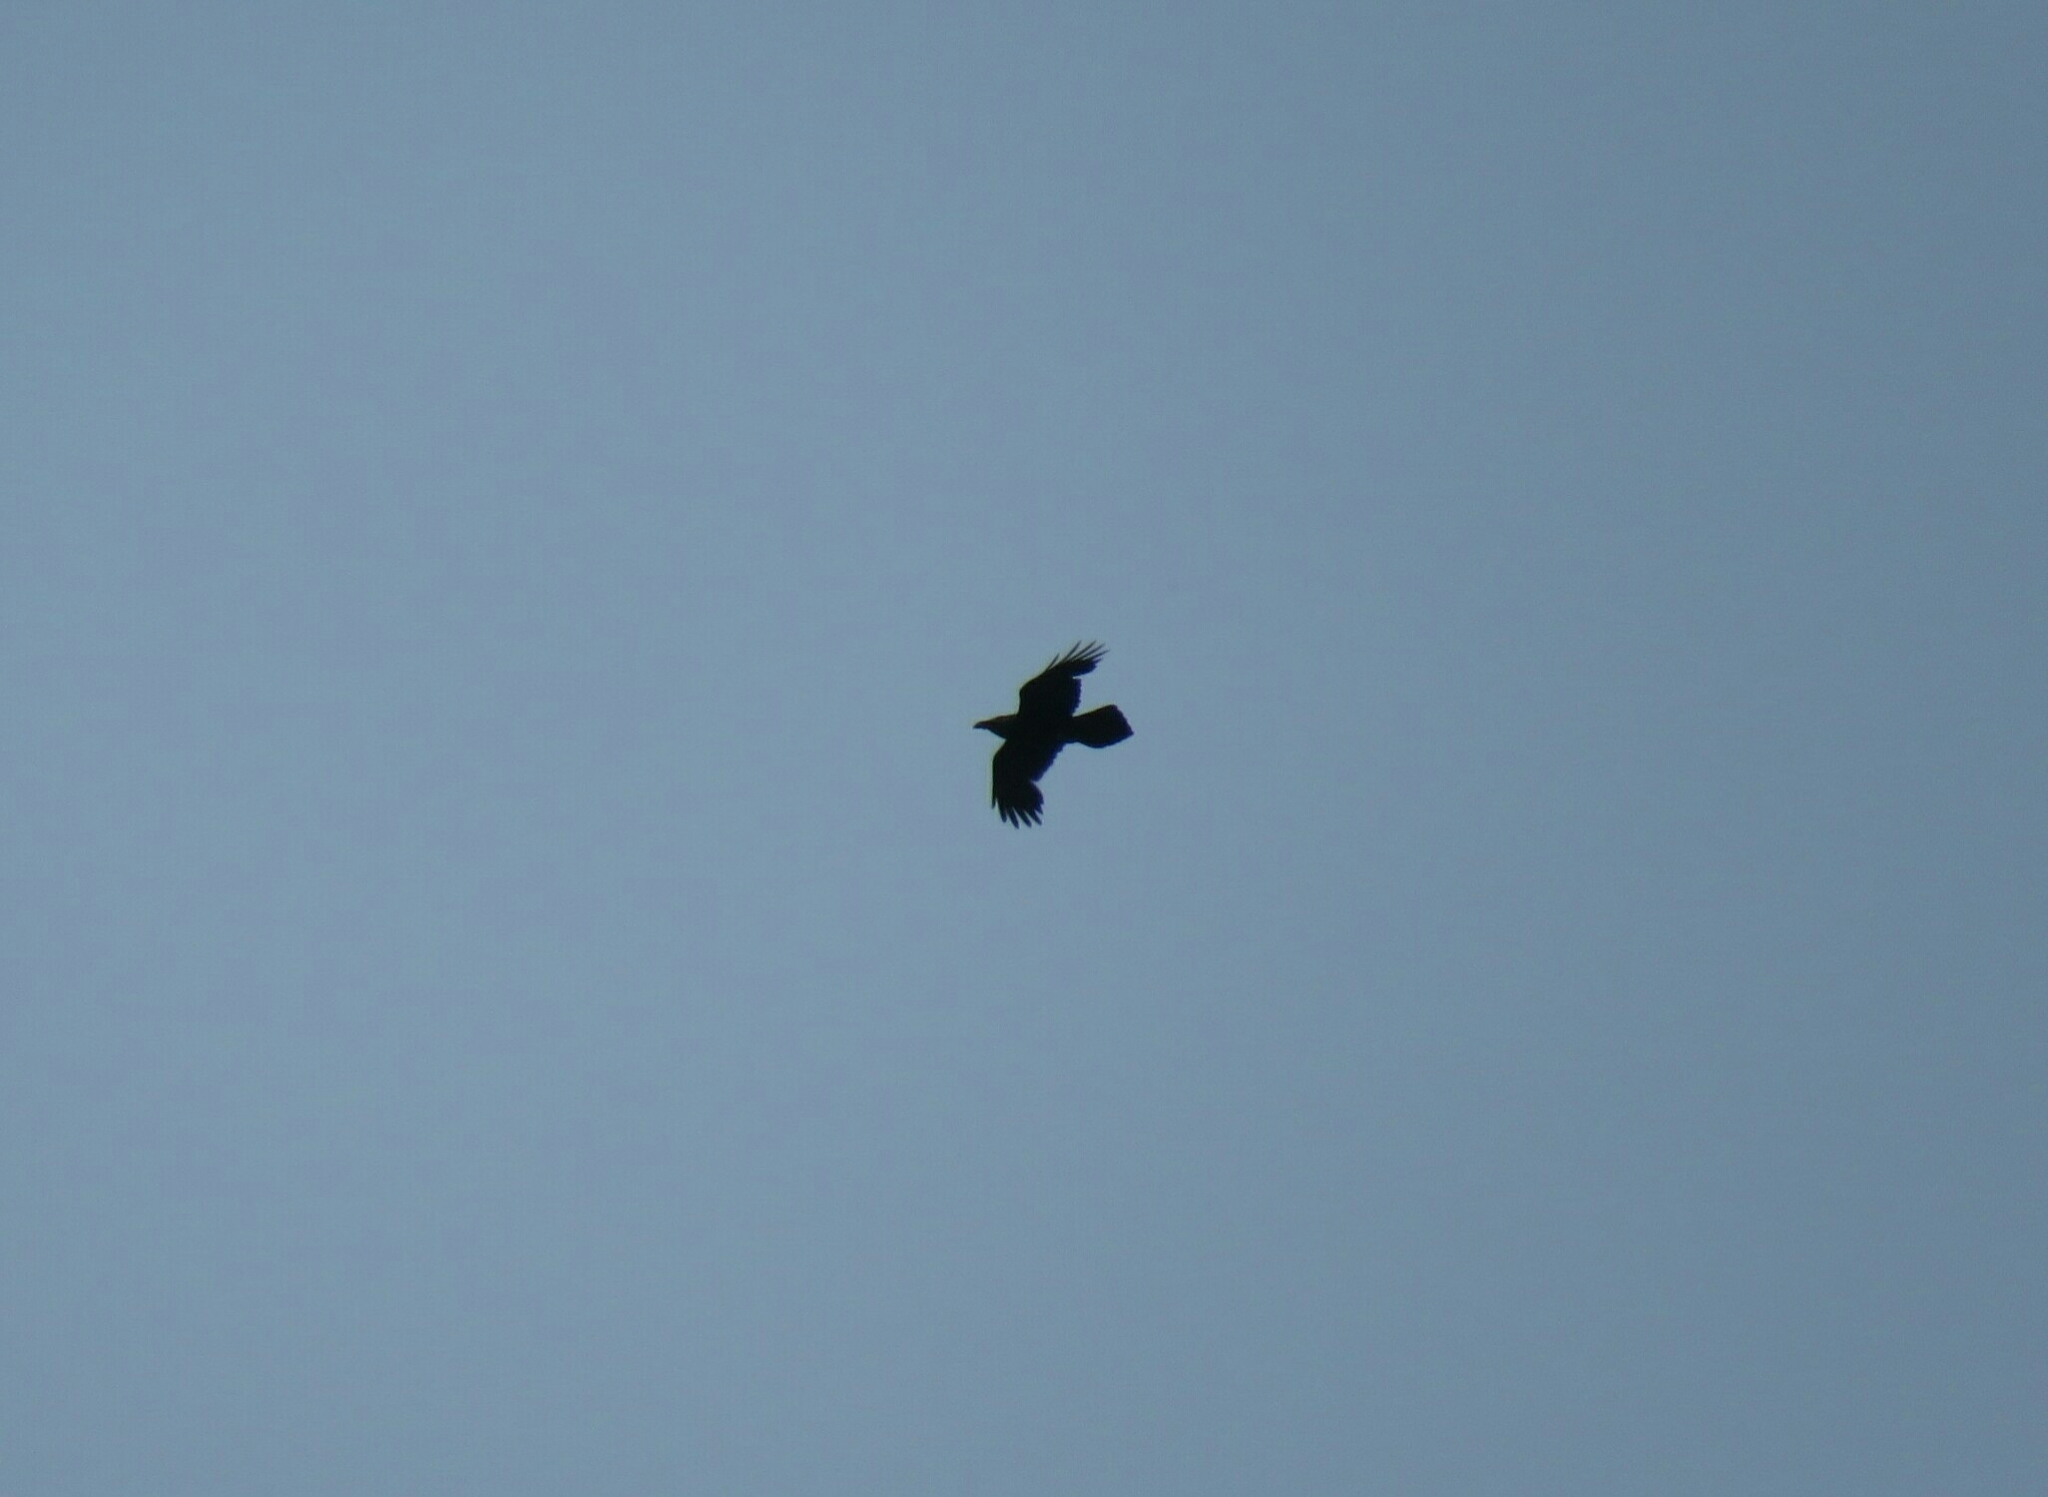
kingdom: Animalia
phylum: Chordata
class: Aves
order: Passeriformes
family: Corvidae
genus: Corvus
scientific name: Corvus corax
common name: Common raven
